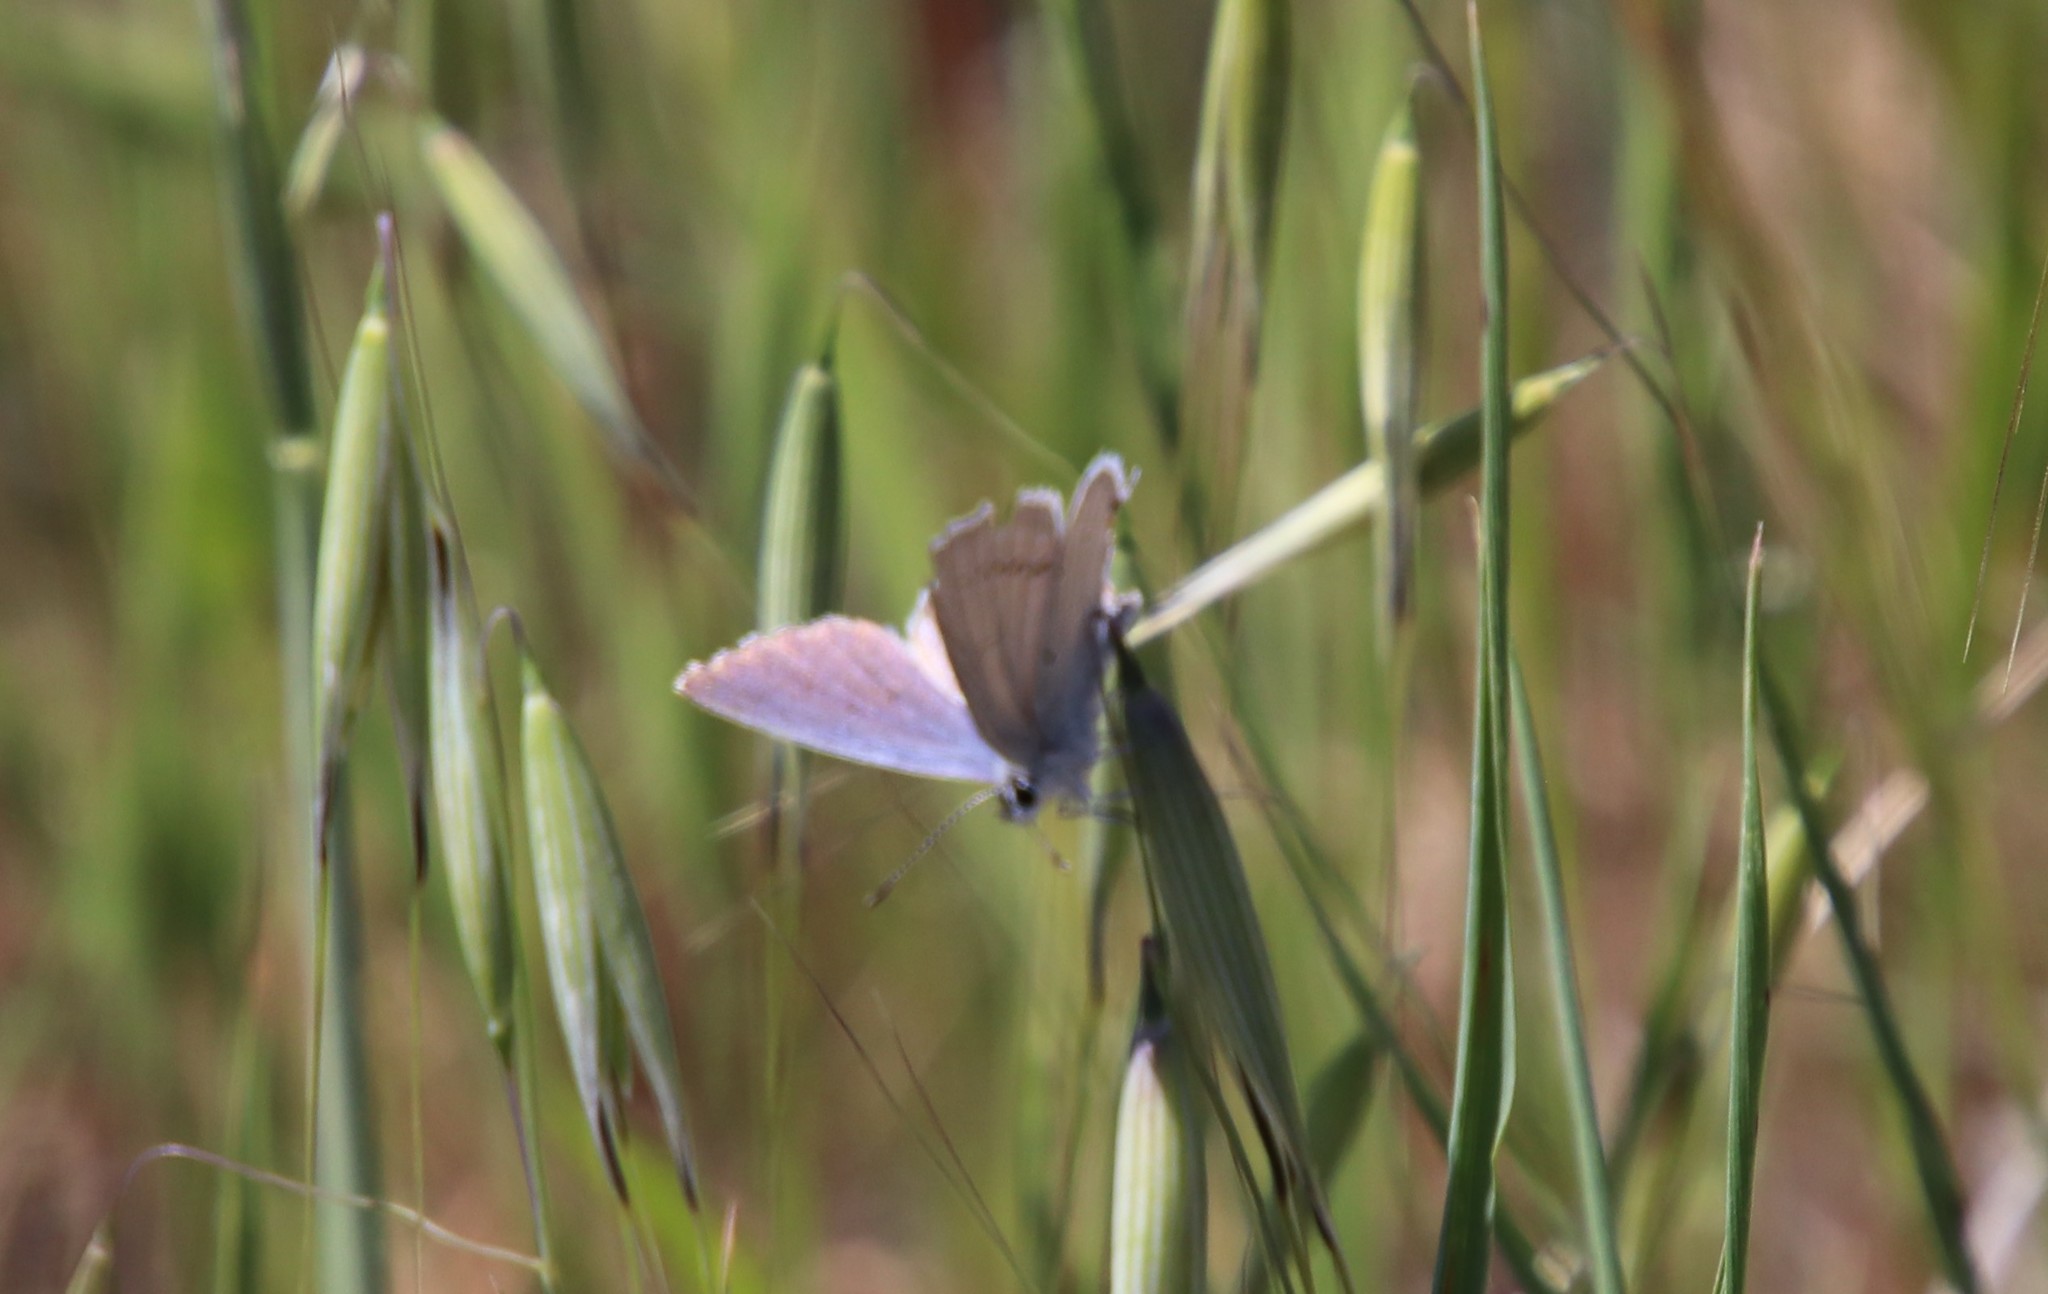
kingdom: Animalia
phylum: Arthropoda
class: Insecta
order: Lepidoptera
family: Lycaenidae
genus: Elkalyce
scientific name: Elkalyce amyntula
